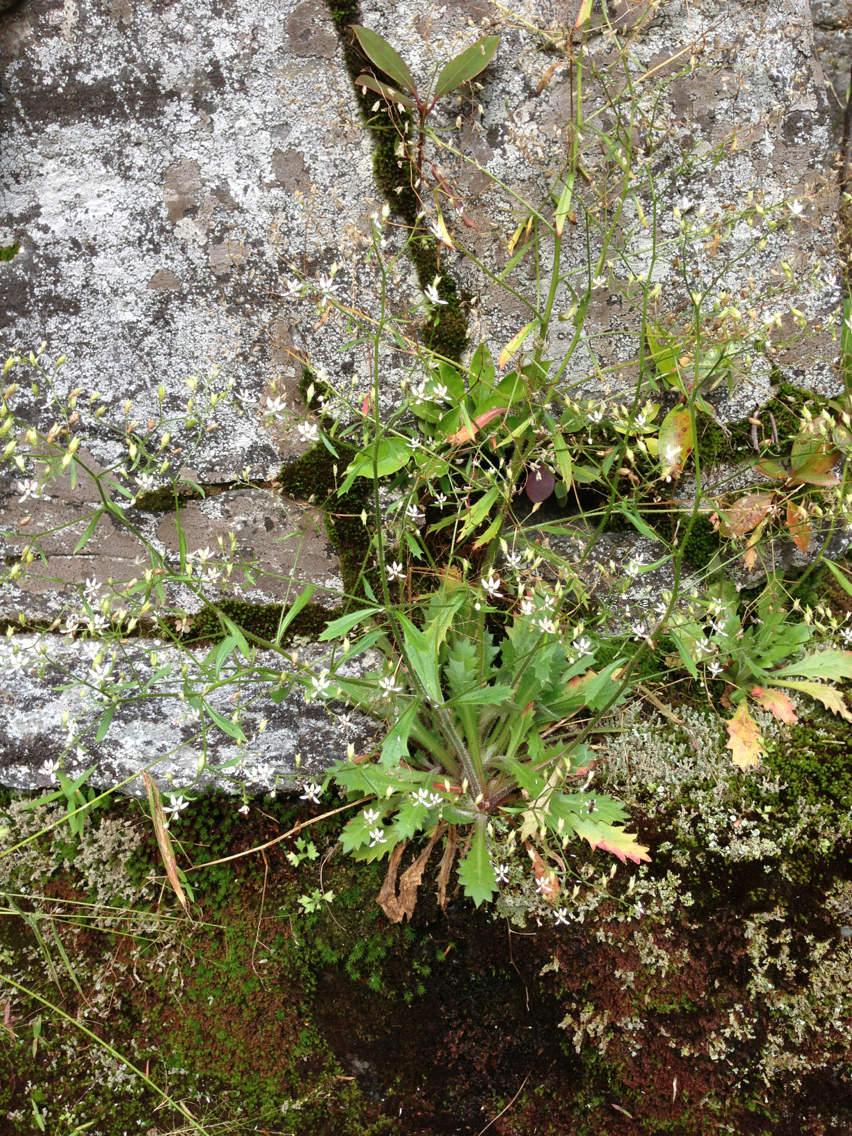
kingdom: Plantae
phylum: Tracheophyta
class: Magnoliopsida
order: Saxifragales
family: Saxifragaceae
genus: Micranthes
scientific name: Micranthes micranthidifolia
